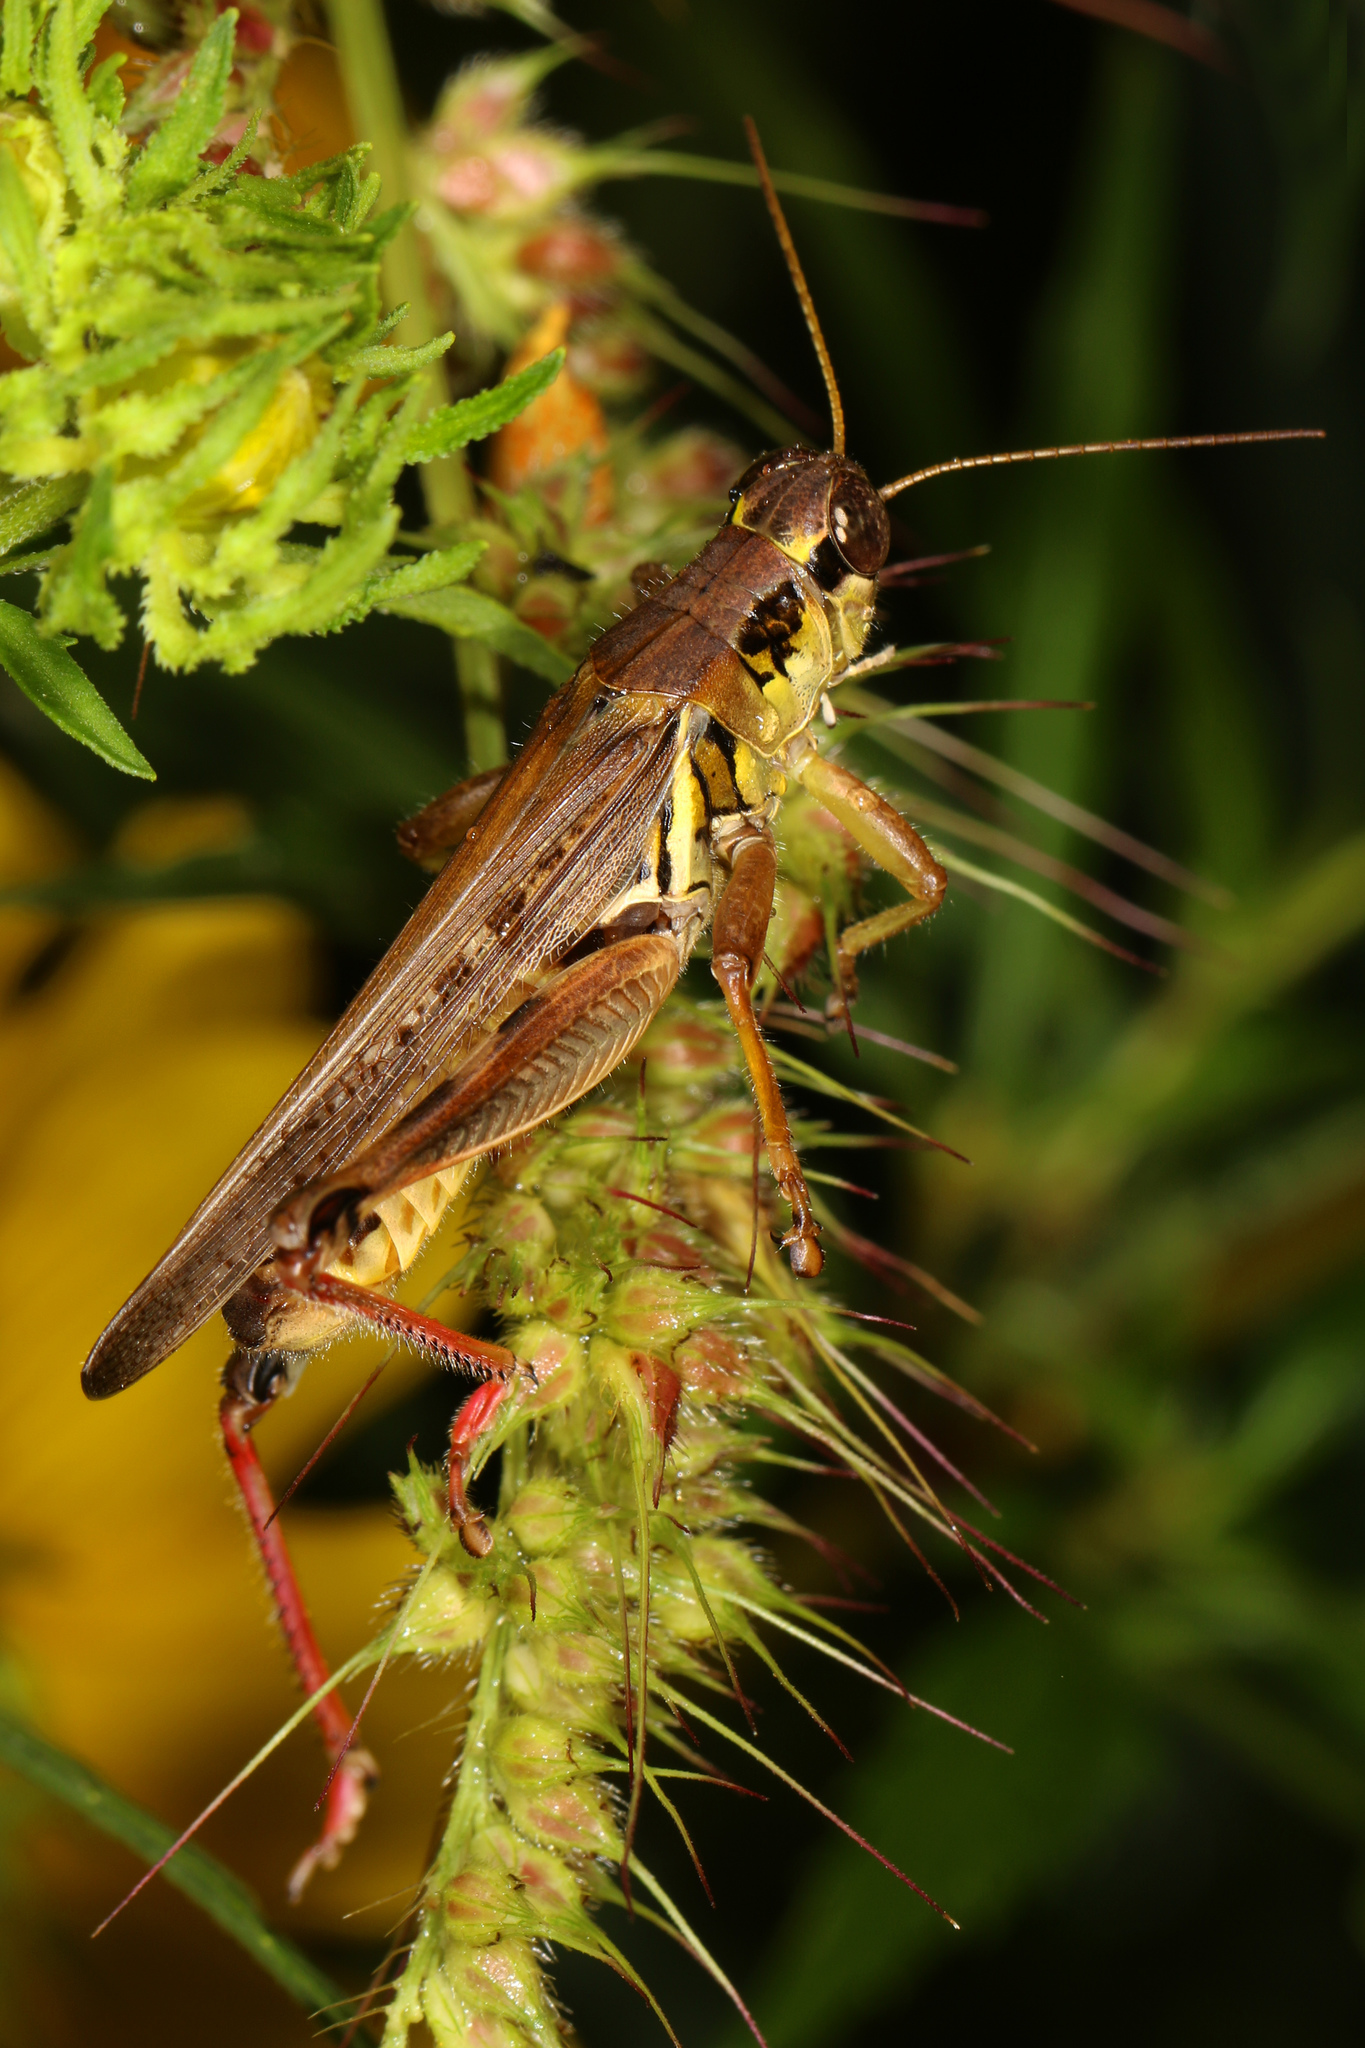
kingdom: Animalia
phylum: Arthropoda
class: Insecta
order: Orthoptera
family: Acrididae
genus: Melanoplus
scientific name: Melanoplus femurrubrum
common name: Red-legged grasshopper
